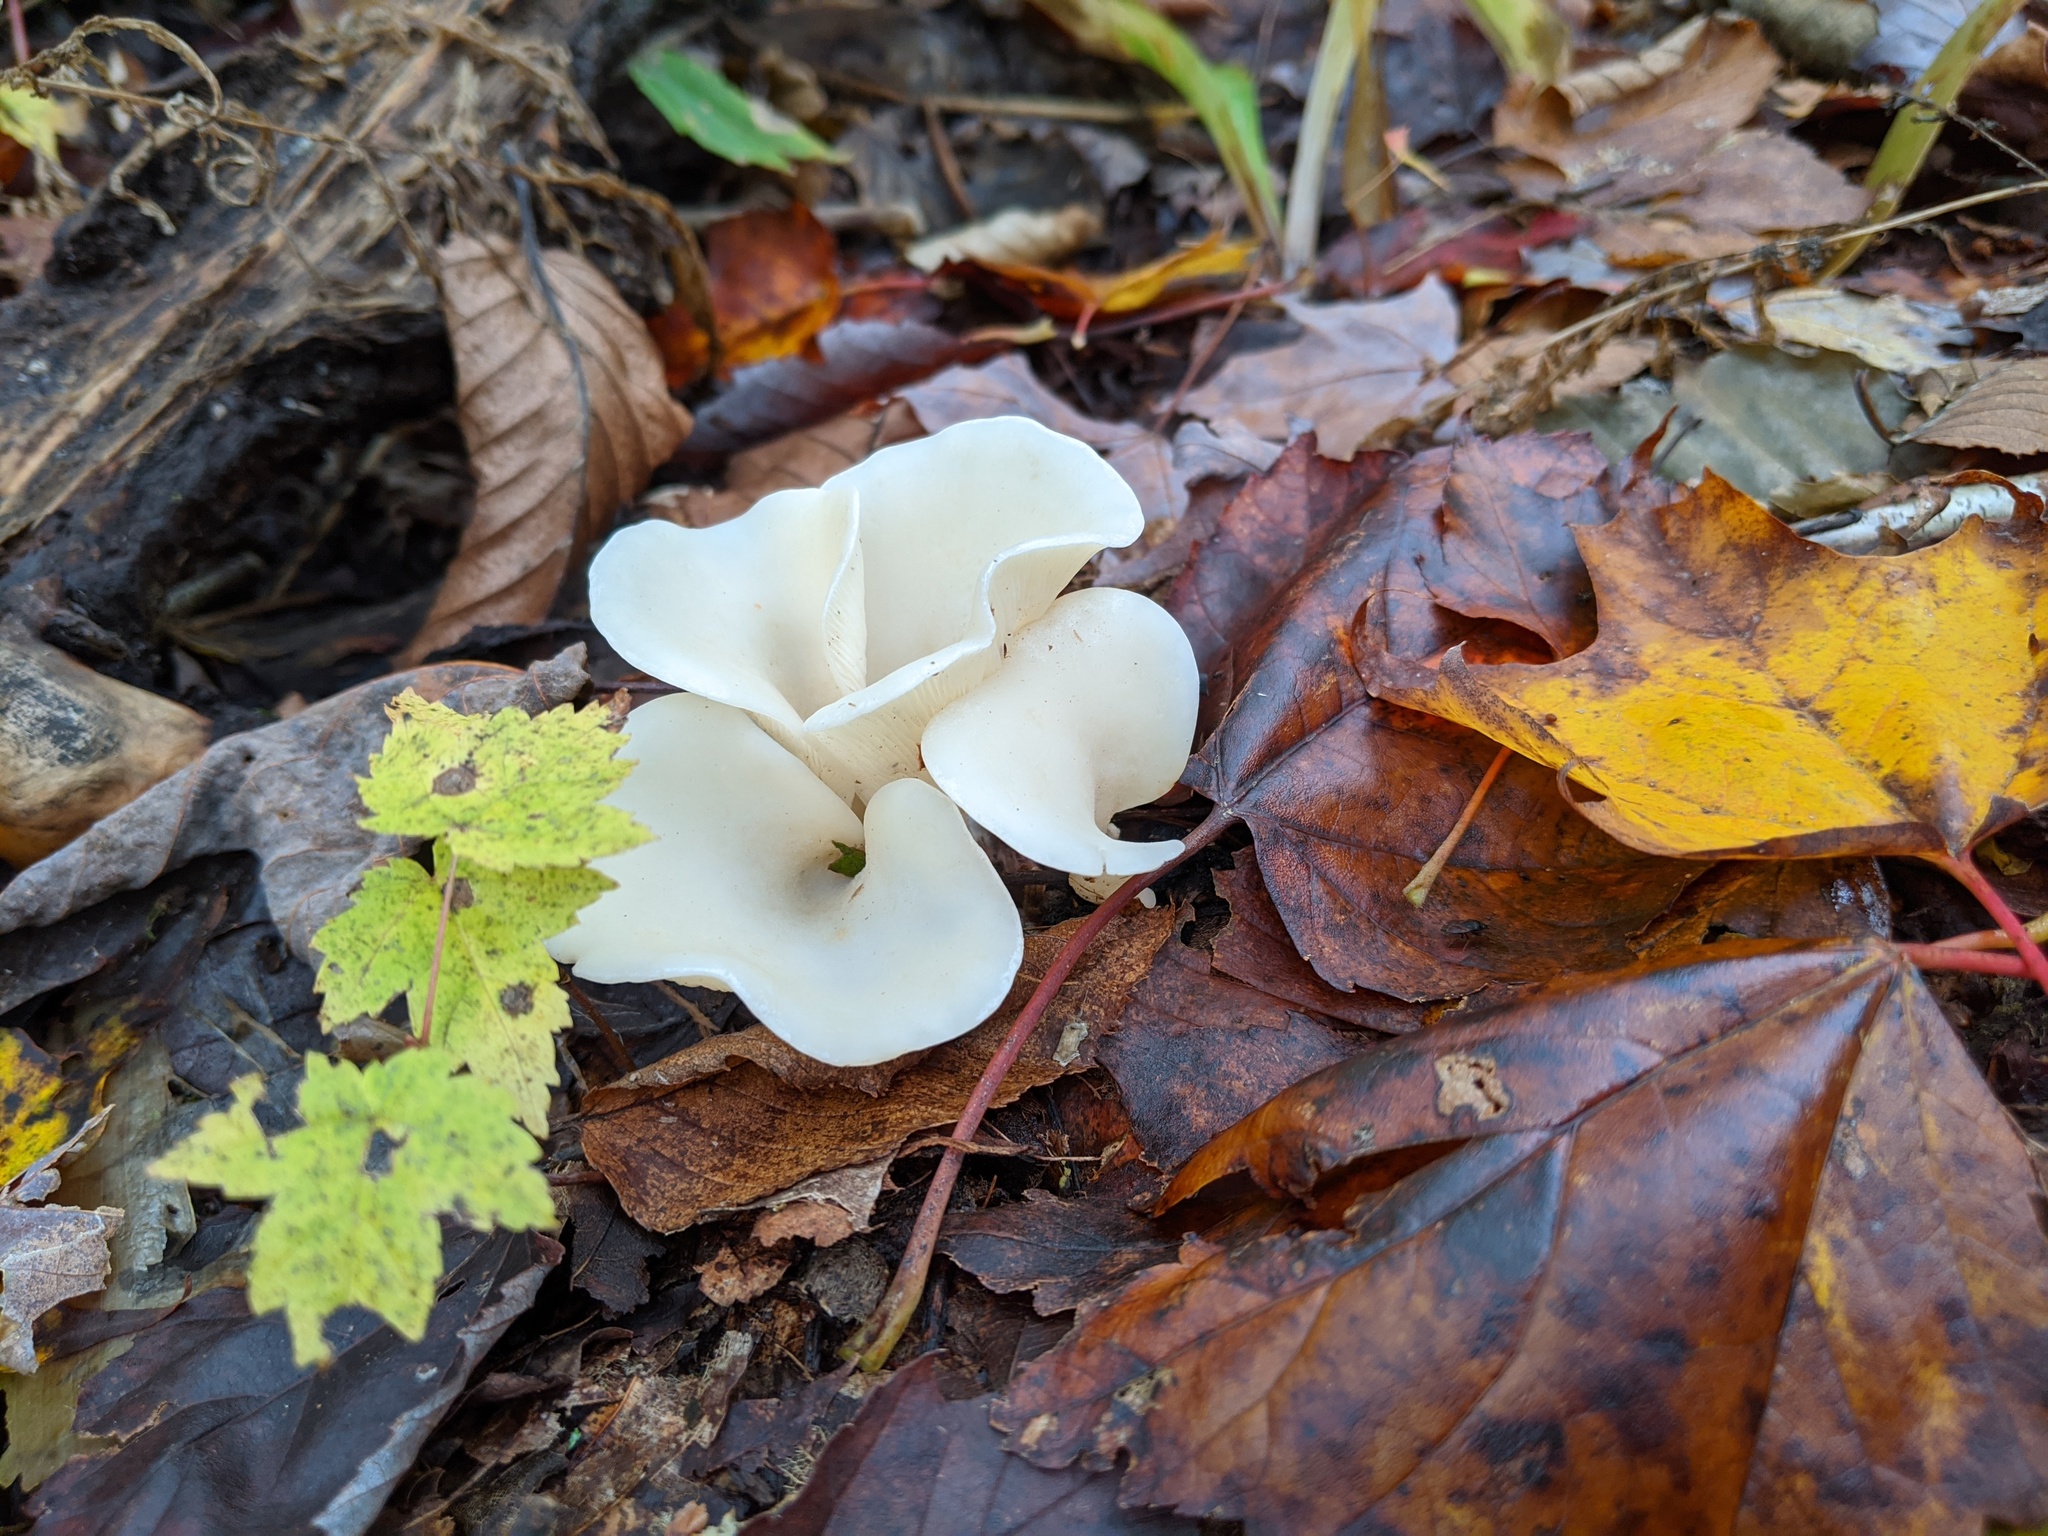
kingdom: Fungi
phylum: Basidiomycota
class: Agaricomycetes
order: Agaricales
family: Marasmiaceae
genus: Pleurocybella
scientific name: Pleurocybella porrigens
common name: Angel's wings
